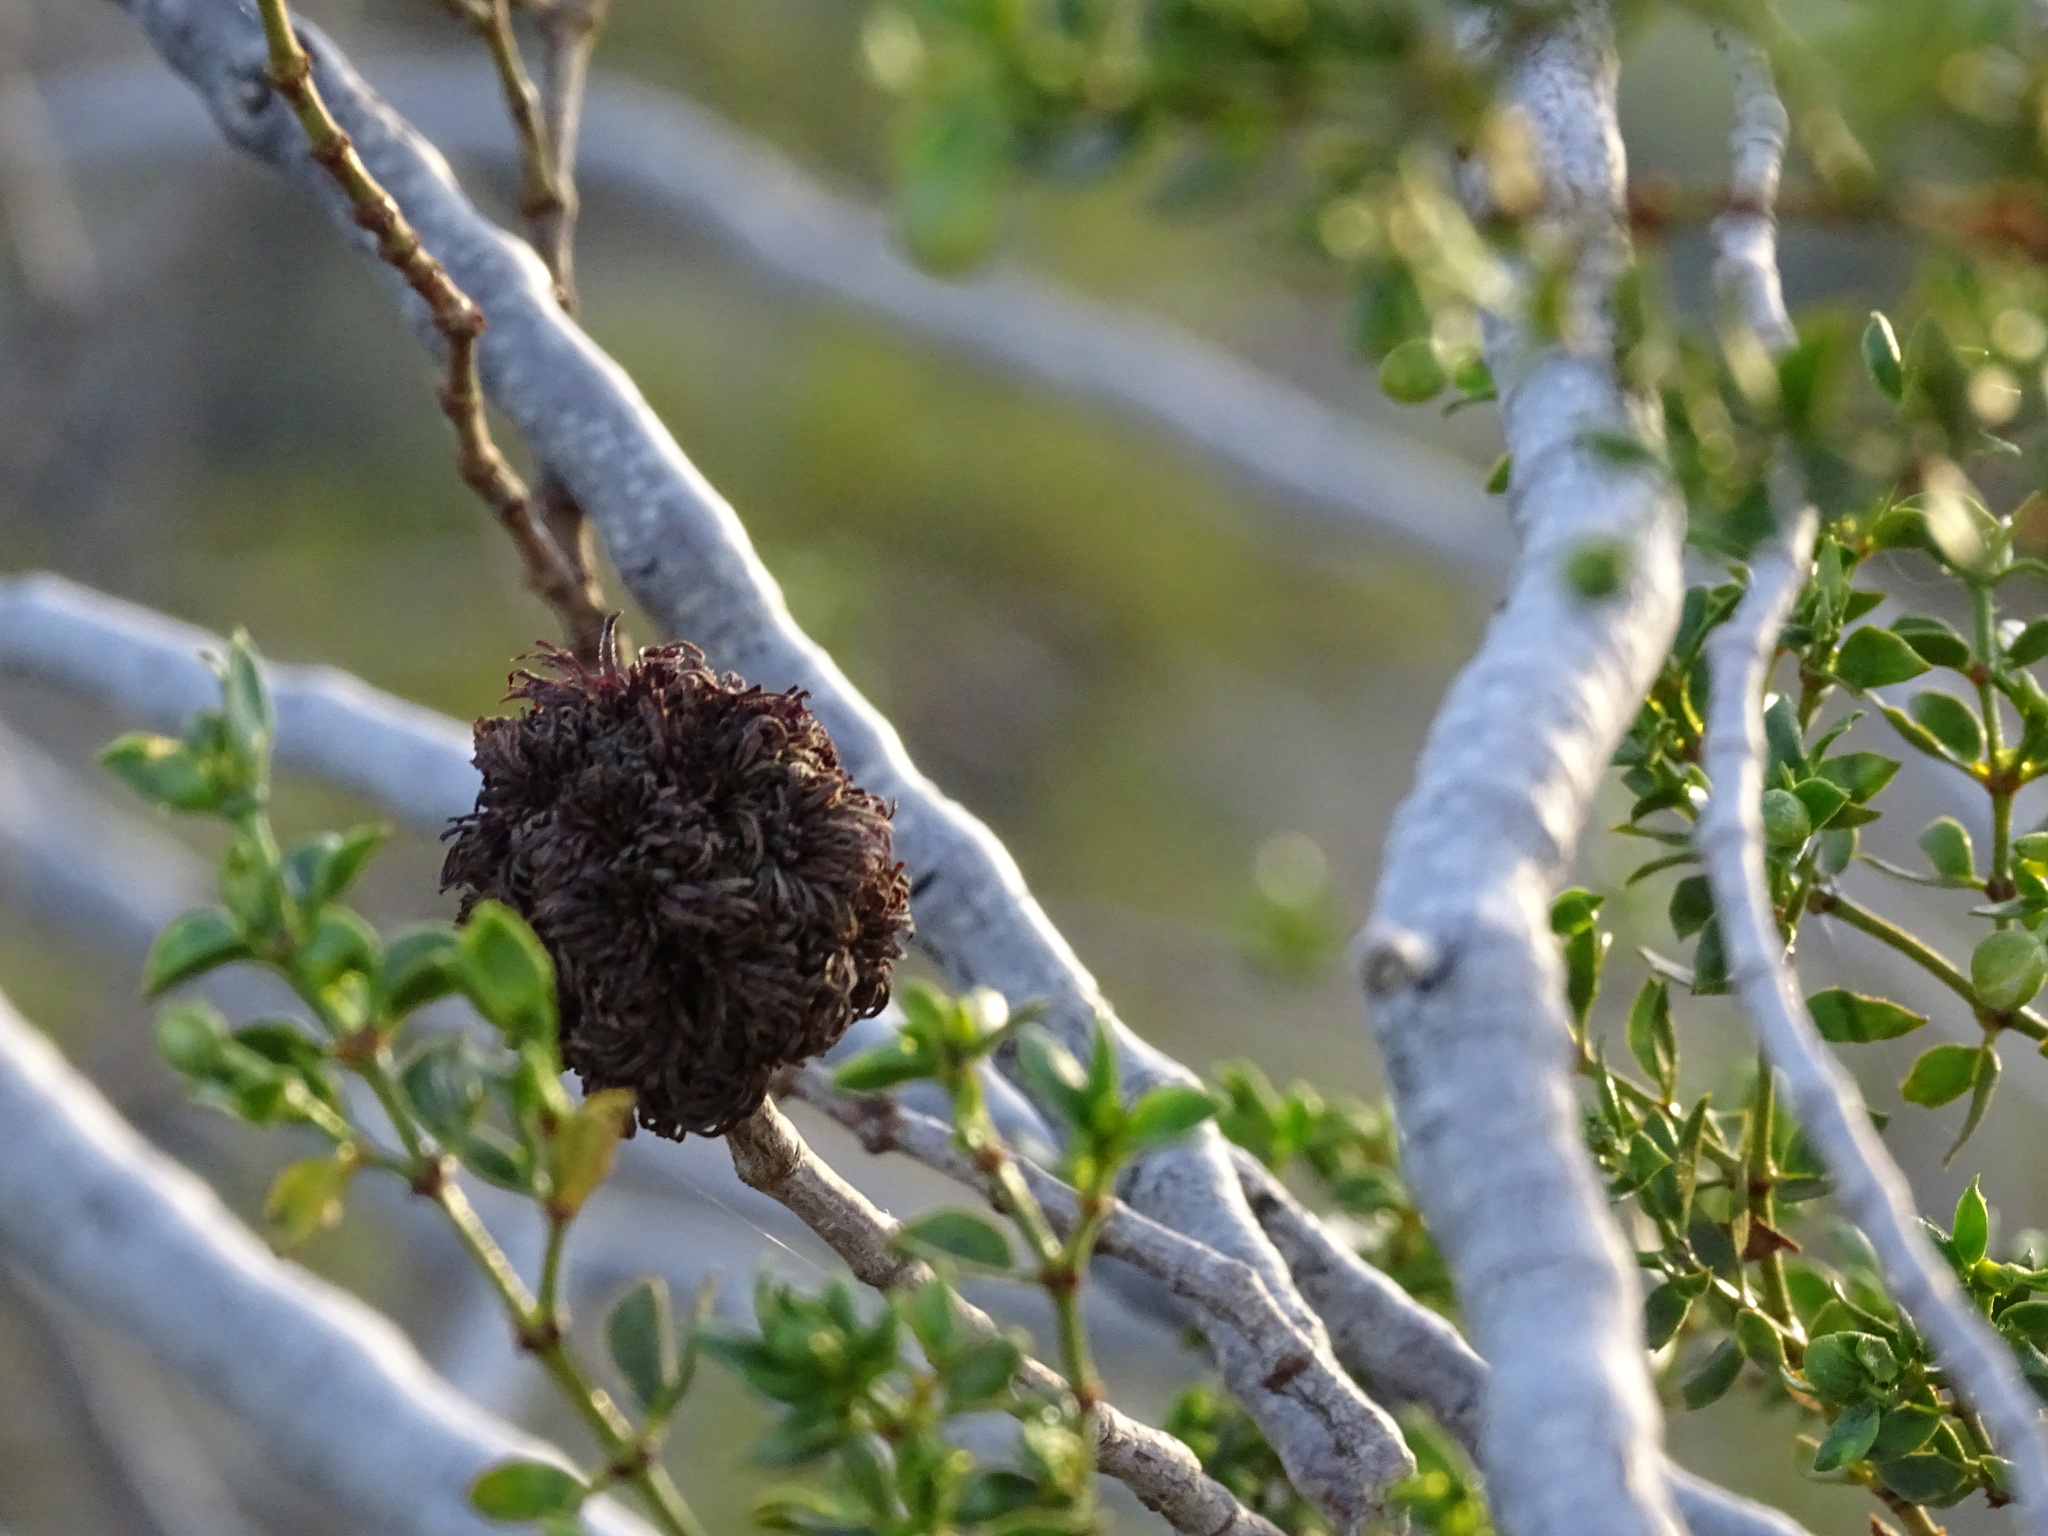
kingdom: Animalia
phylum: Arthropoda
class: Insecta
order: Diptera
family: Cecidomyiidae
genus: Asphondylia
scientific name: Asphondylia auripila
